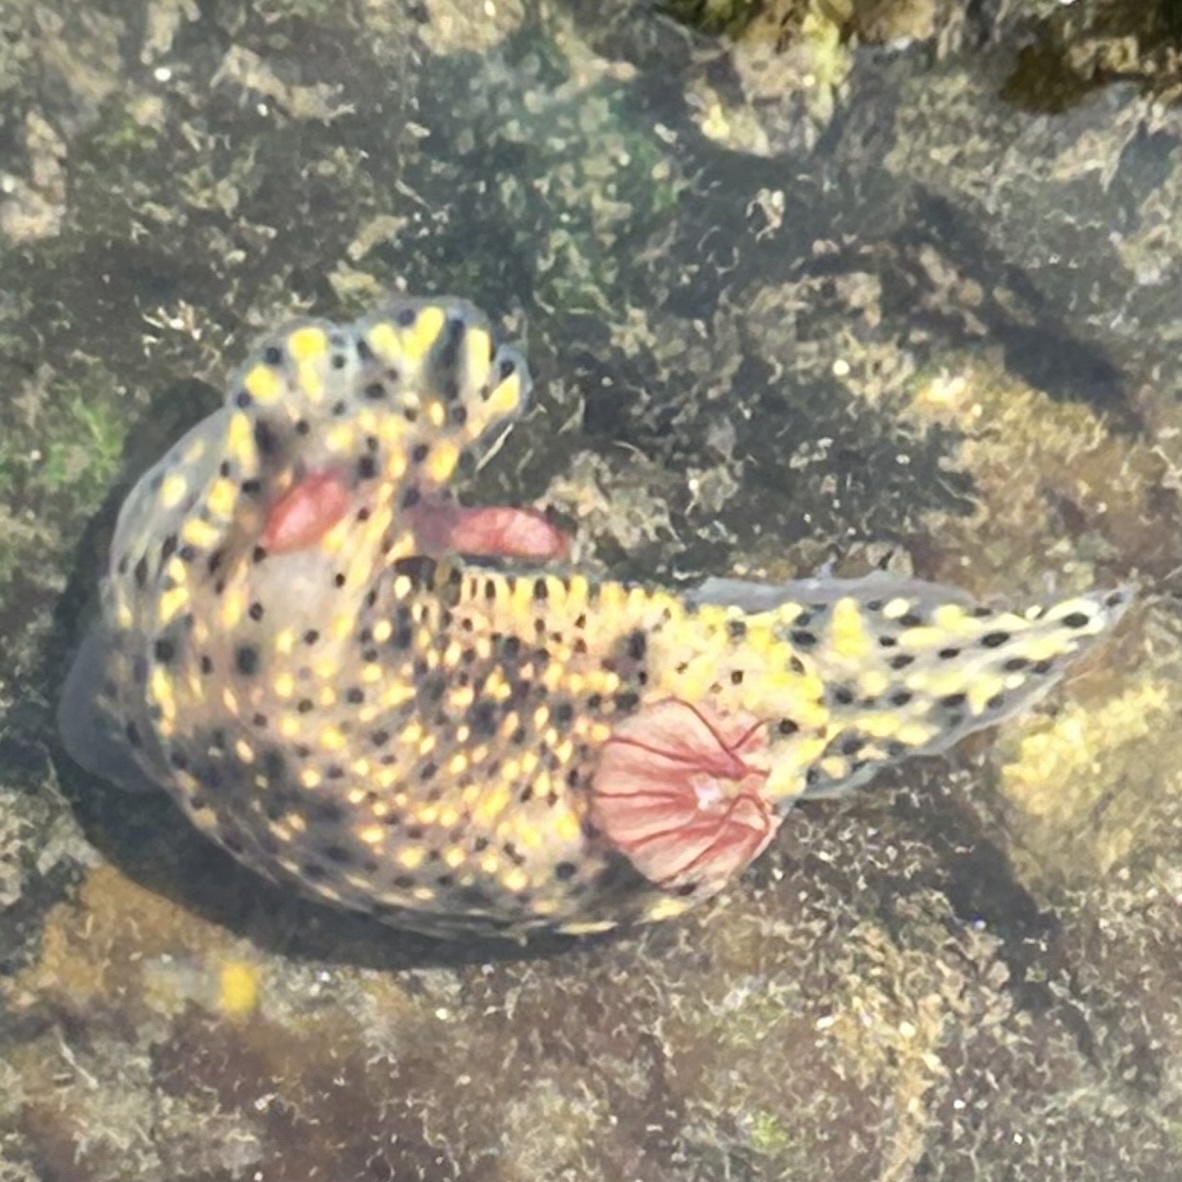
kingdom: Animalia
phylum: Mollusca
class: Gastropoda
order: Nudibranchia
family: Chromodorididae
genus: Hypselodoris
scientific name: Hypselodoris infucata
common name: Mottled dorid
